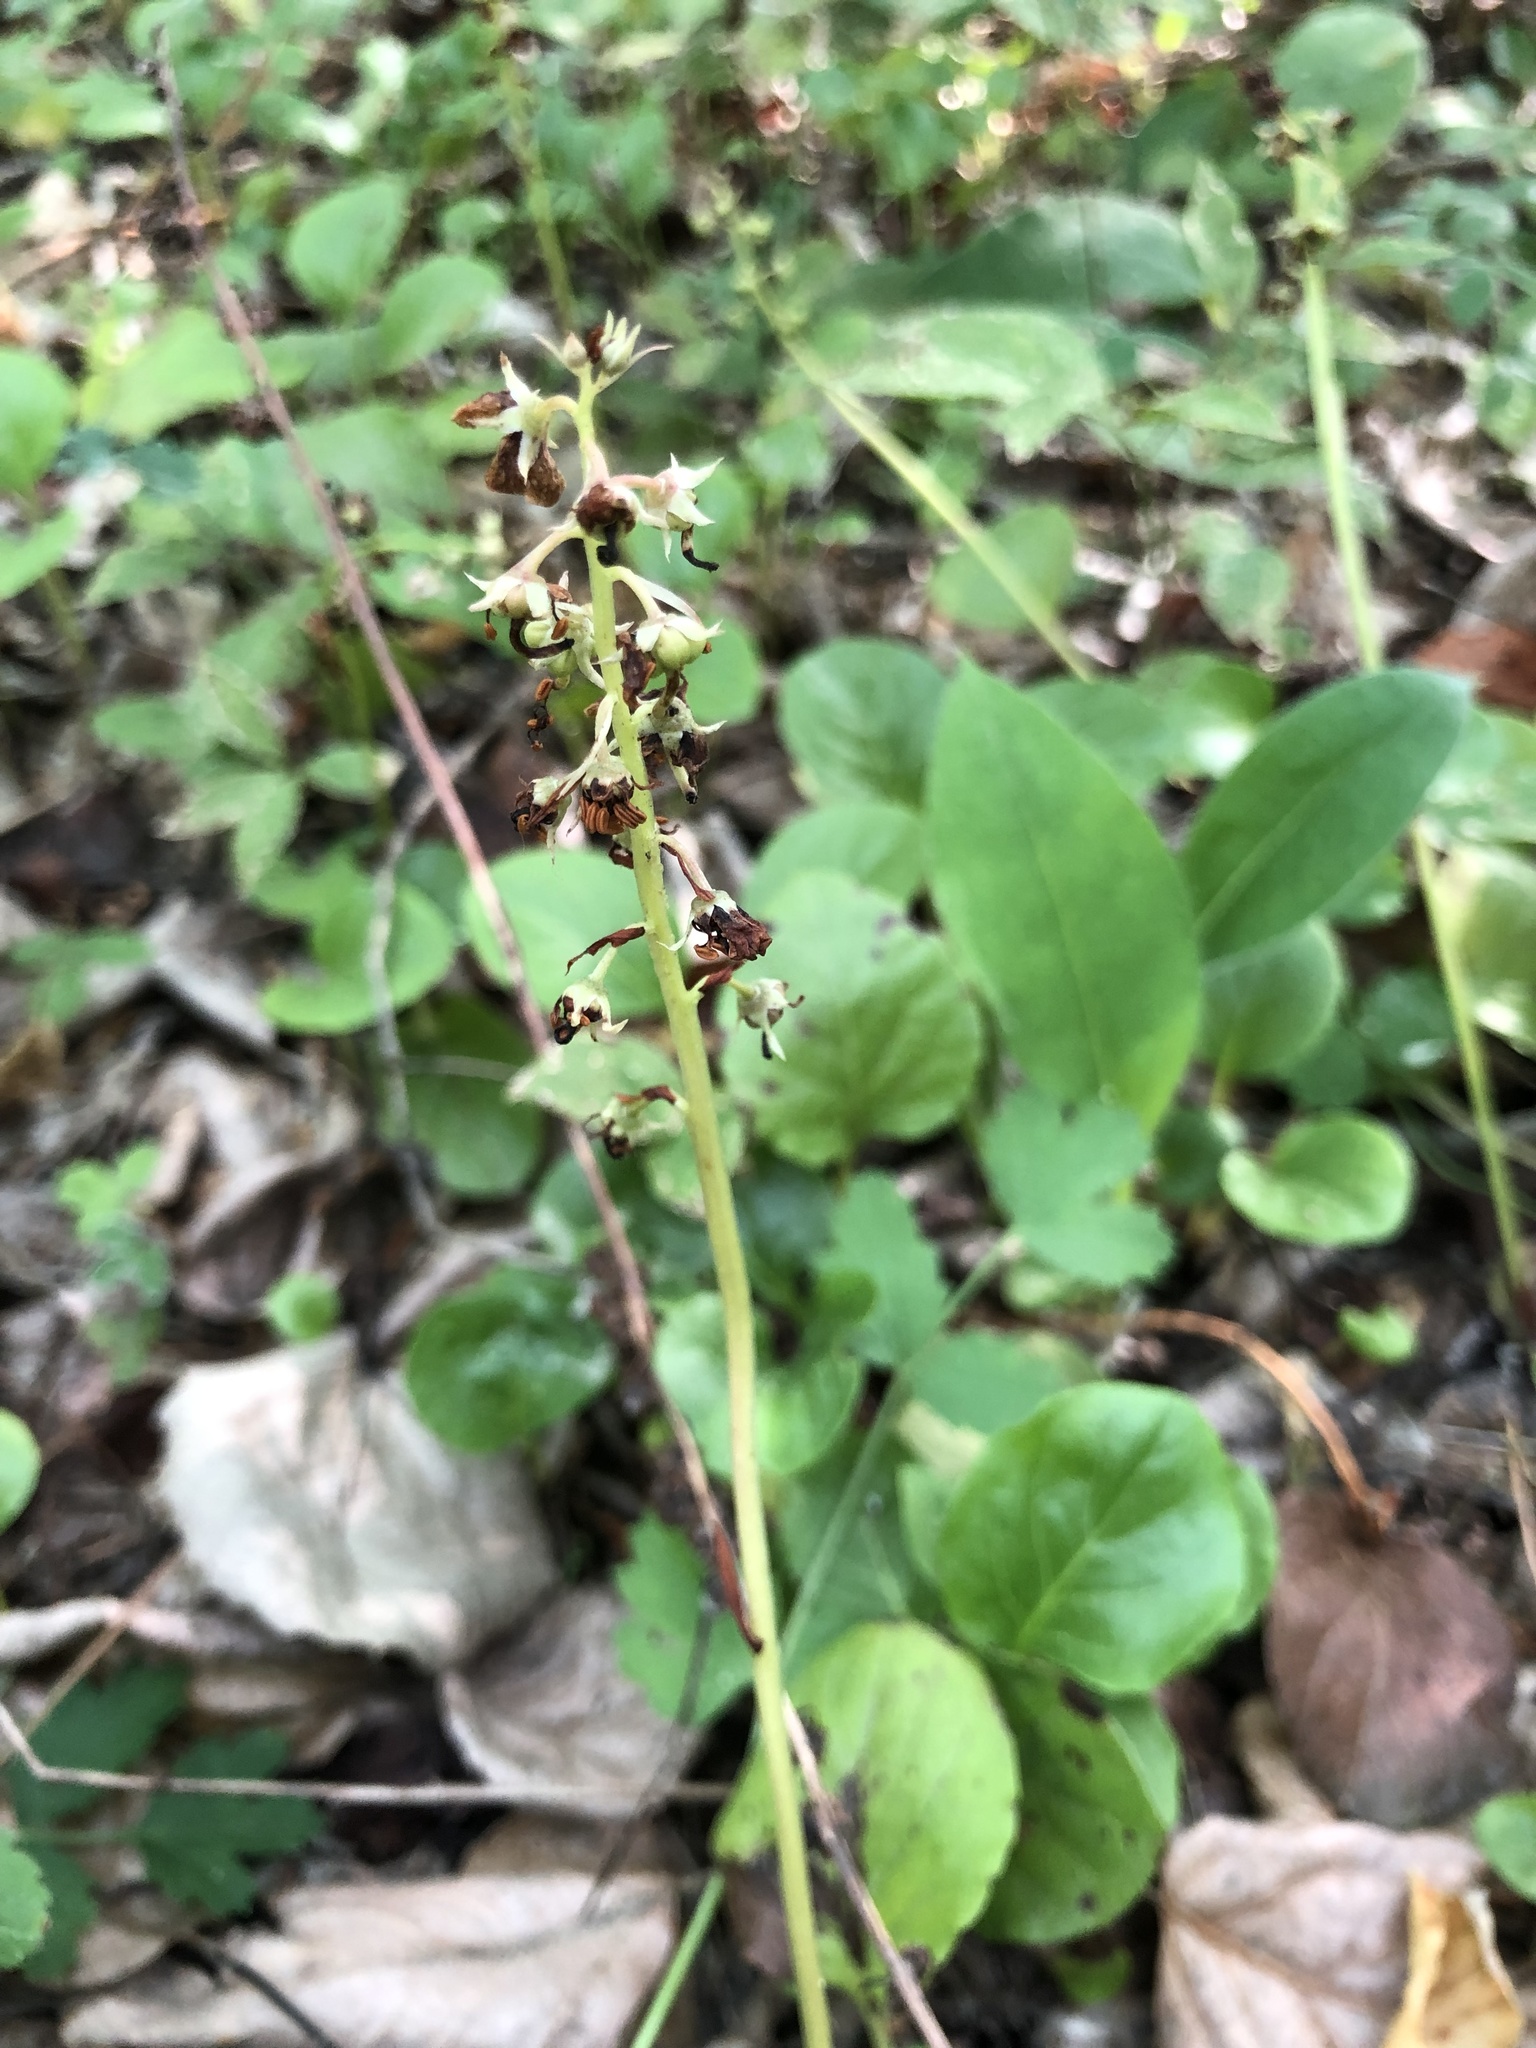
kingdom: Plantae
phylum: Tracheophyta
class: Magnoliopsida
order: Ericales
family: Ericaceae
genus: Pyrola
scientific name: Pyrola rotundifolia
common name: Round-leaved wintergreen
